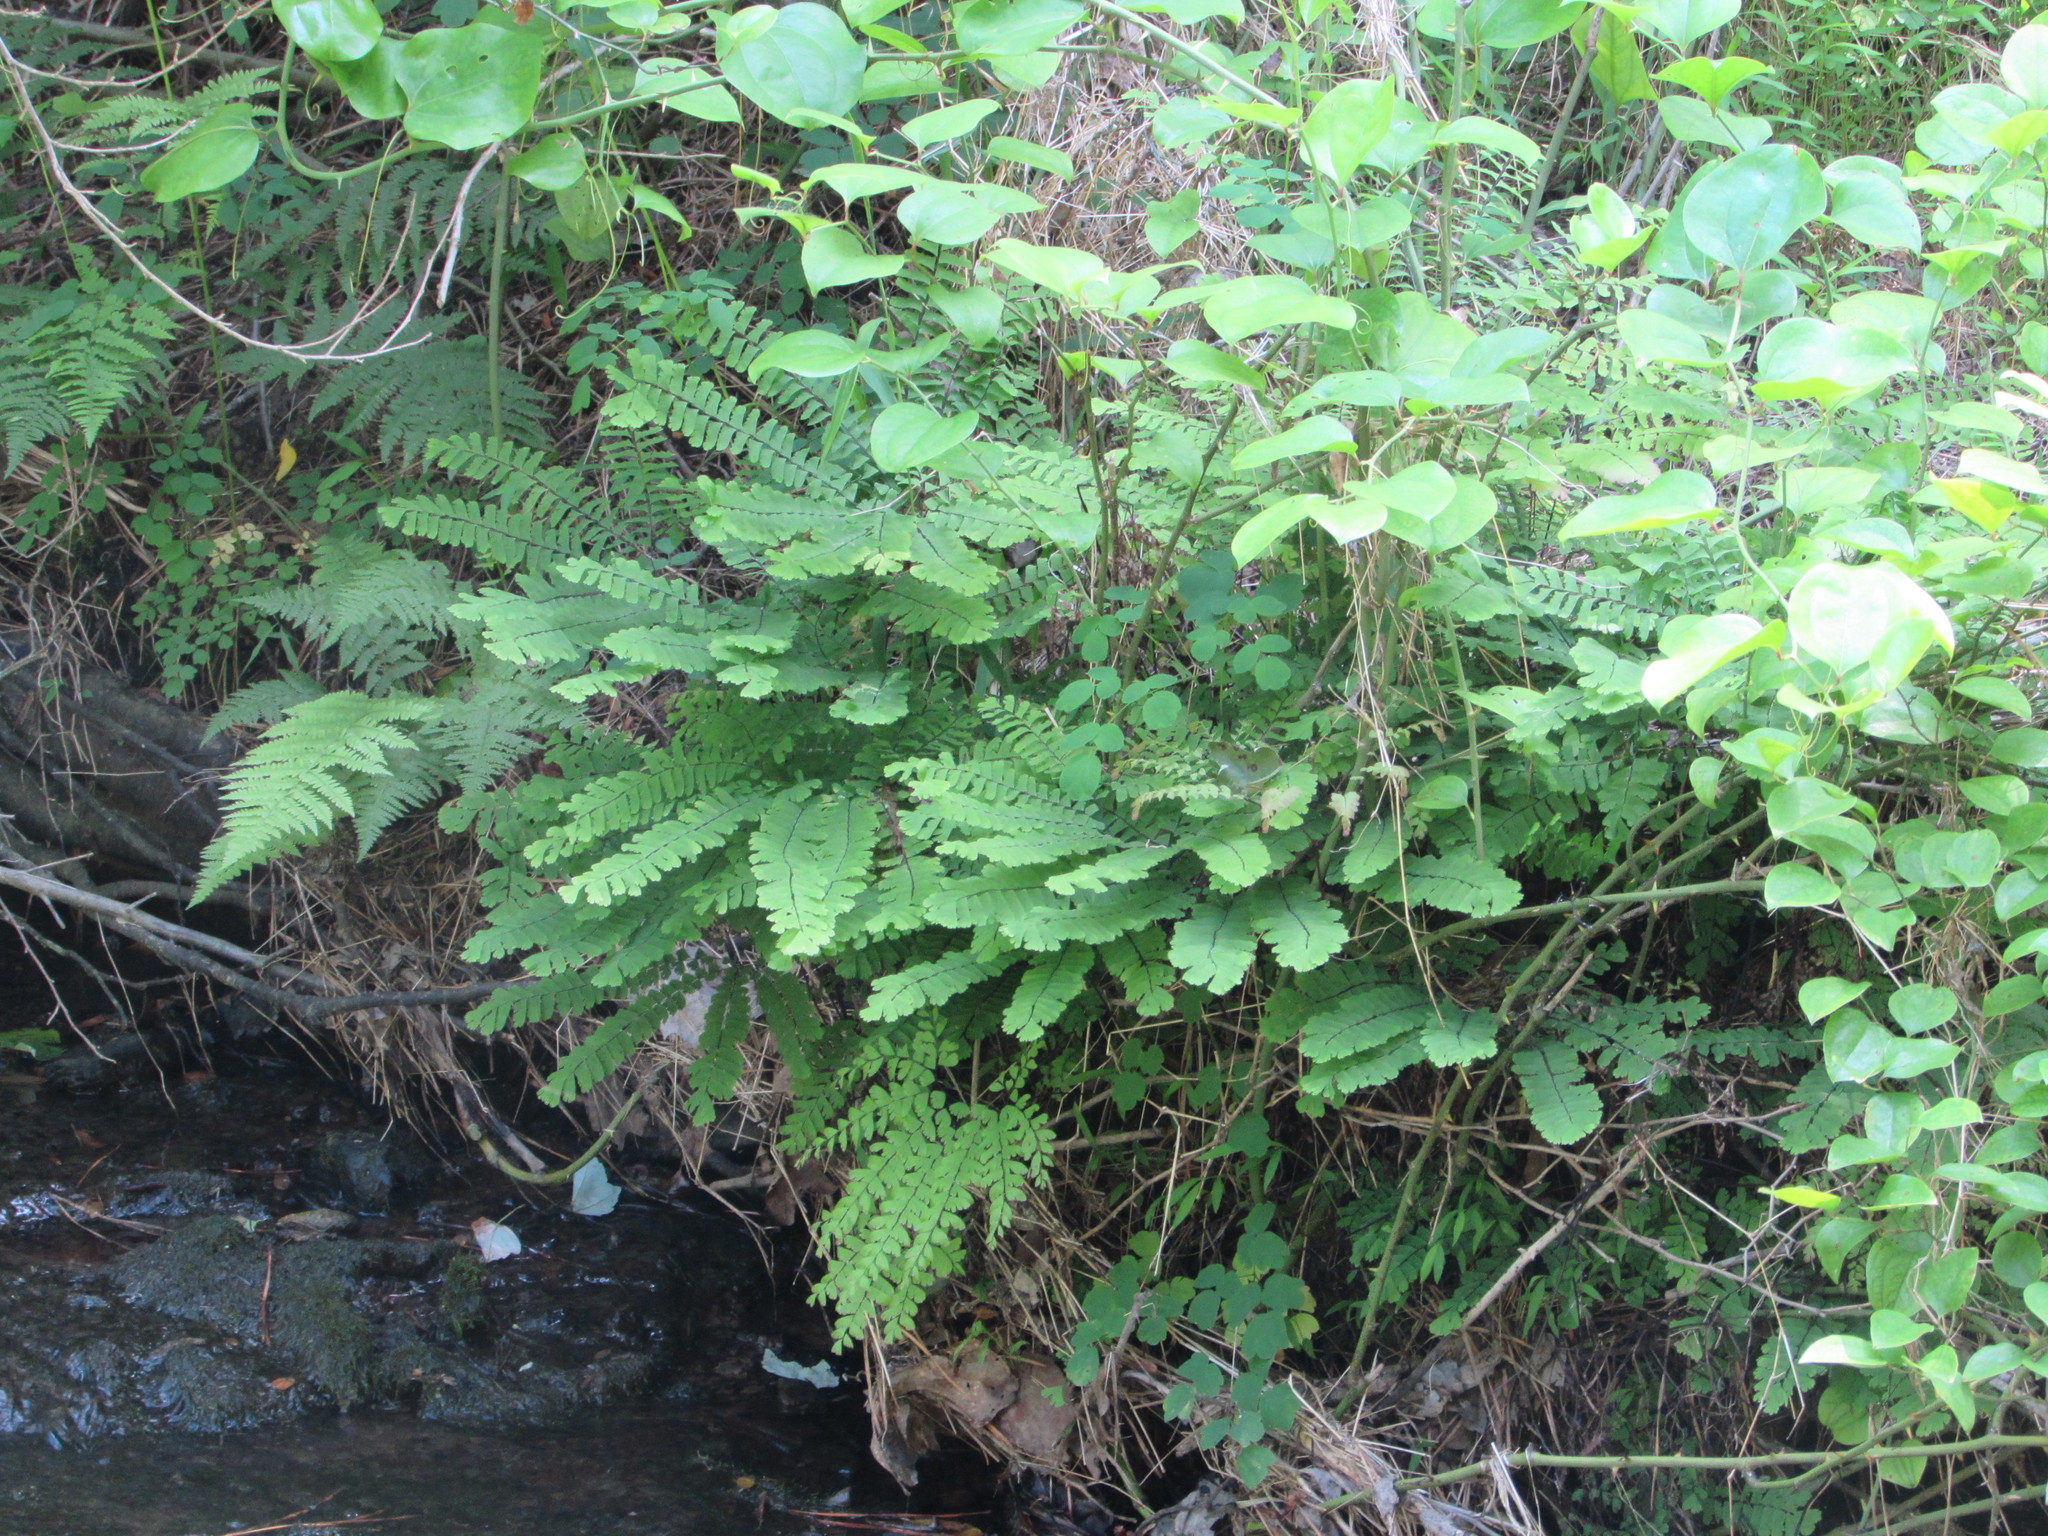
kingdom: Plantae
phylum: Tracheophyta
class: Polypodiopsida
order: Polypodiales
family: Pteridaceae
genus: Adiantum
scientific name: Adiantum pedatum
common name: Five-finger fern
